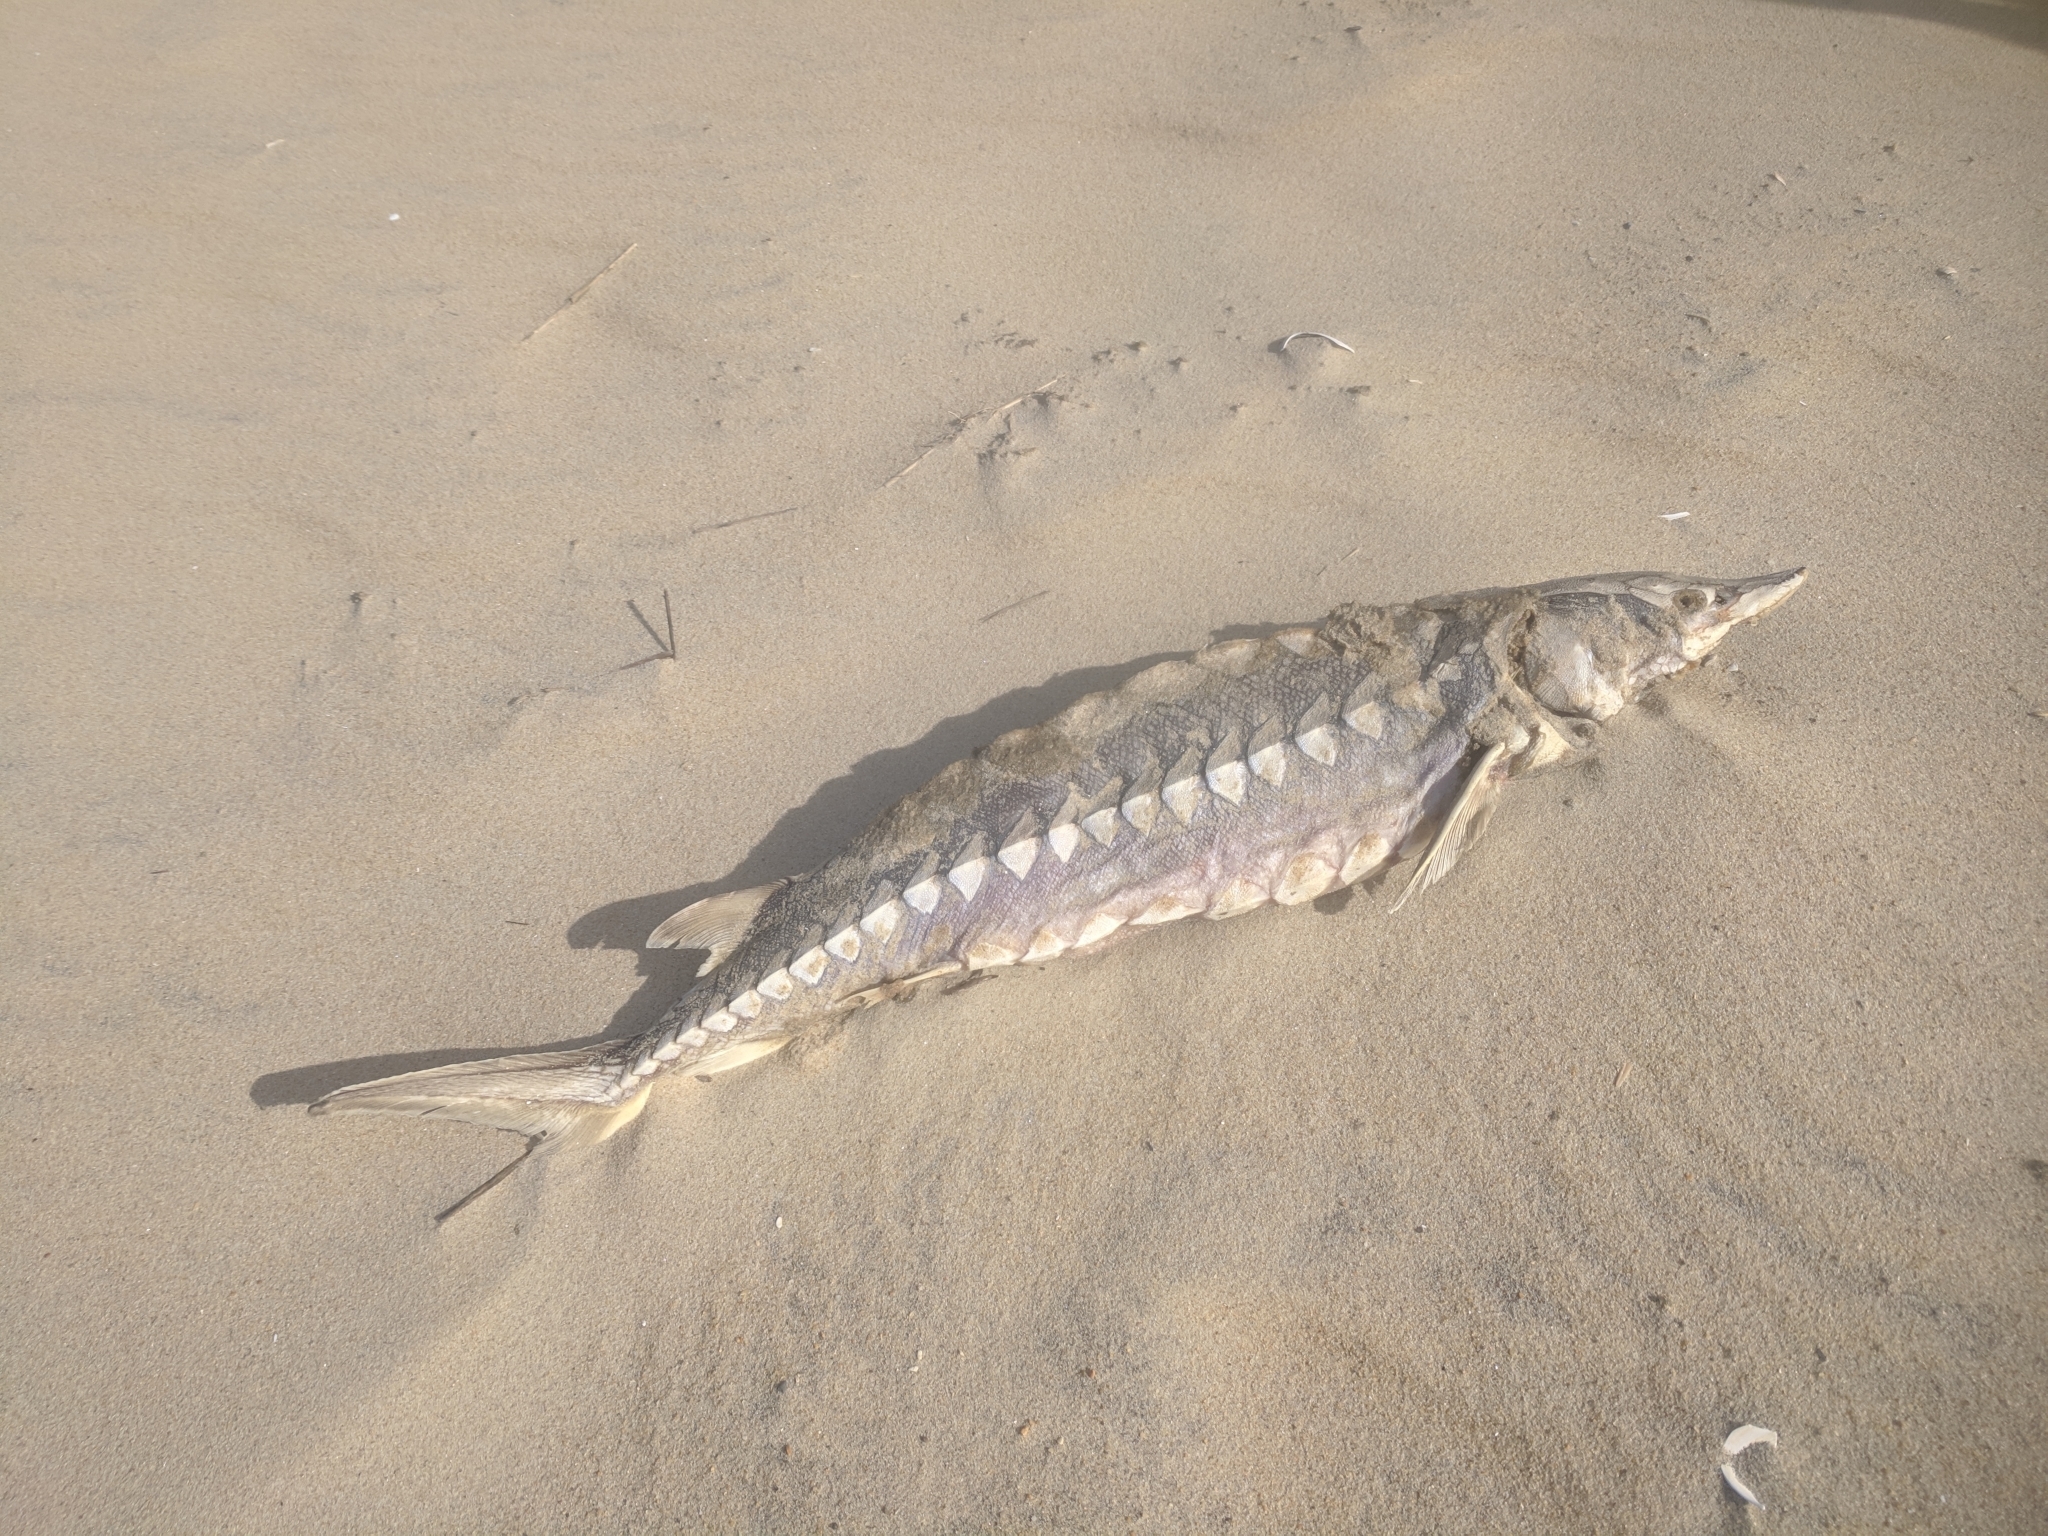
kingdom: Animalia
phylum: Chordata
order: Acipenseriformes
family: Acipenseridae
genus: Acipenser
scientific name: Acipenser oxyrinchus
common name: Atlantic sturgeon
